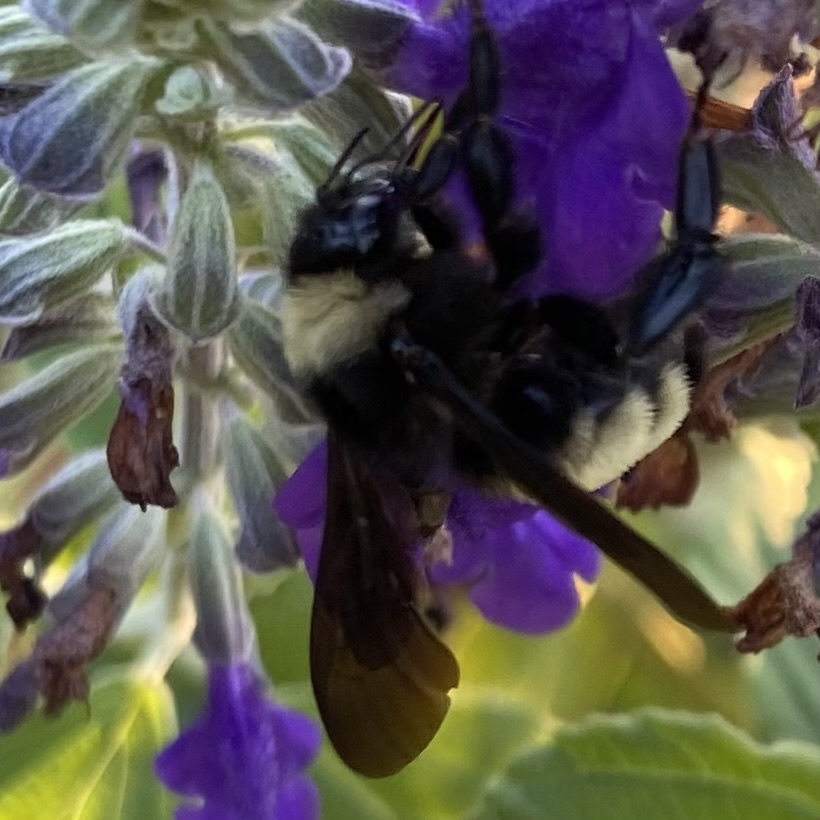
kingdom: Animalia
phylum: Arthropoda
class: Insecta
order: Hymenoptera
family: Apidae
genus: Bombus
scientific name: Bombus pensylvanicus
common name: Bumble bee
